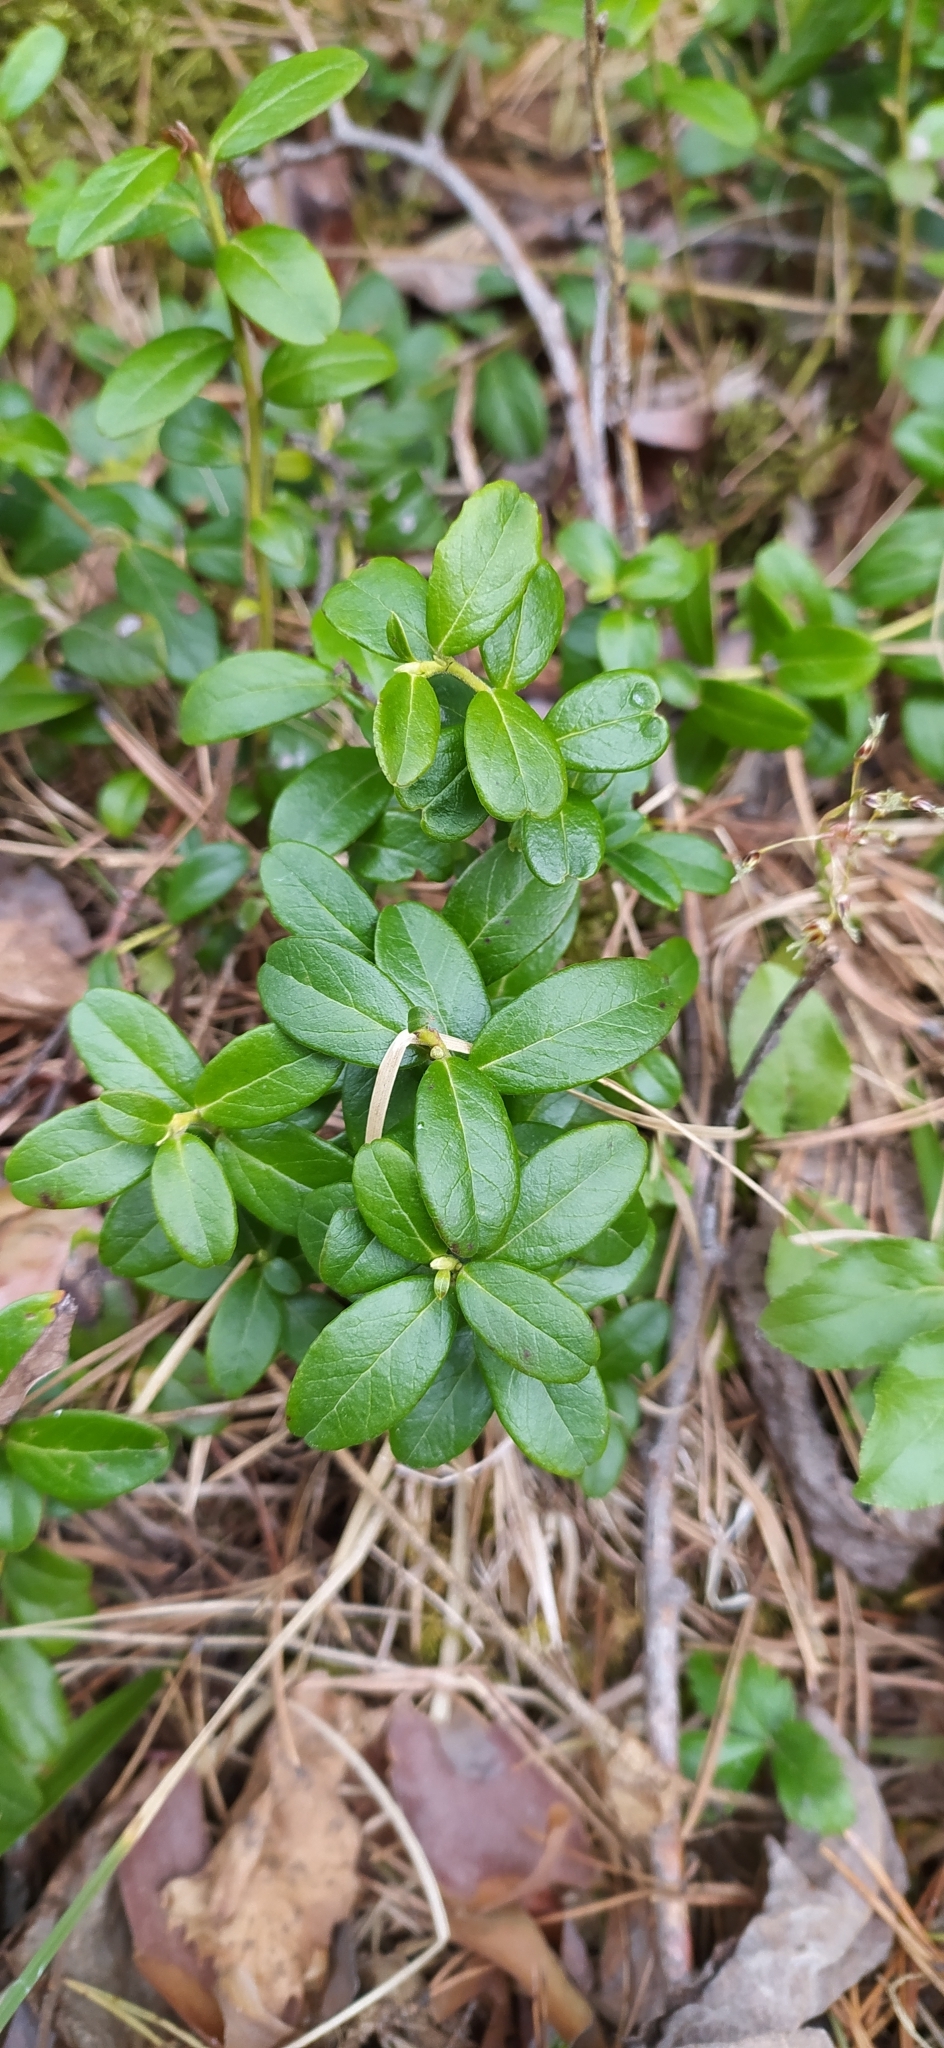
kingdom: Plantae
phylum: Tracheophyta
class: Magnoliopsida
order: Ericales
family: Ericaceae
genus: Vaccinium
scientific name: Vaccinium vitis-idaea
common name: Cowberry
